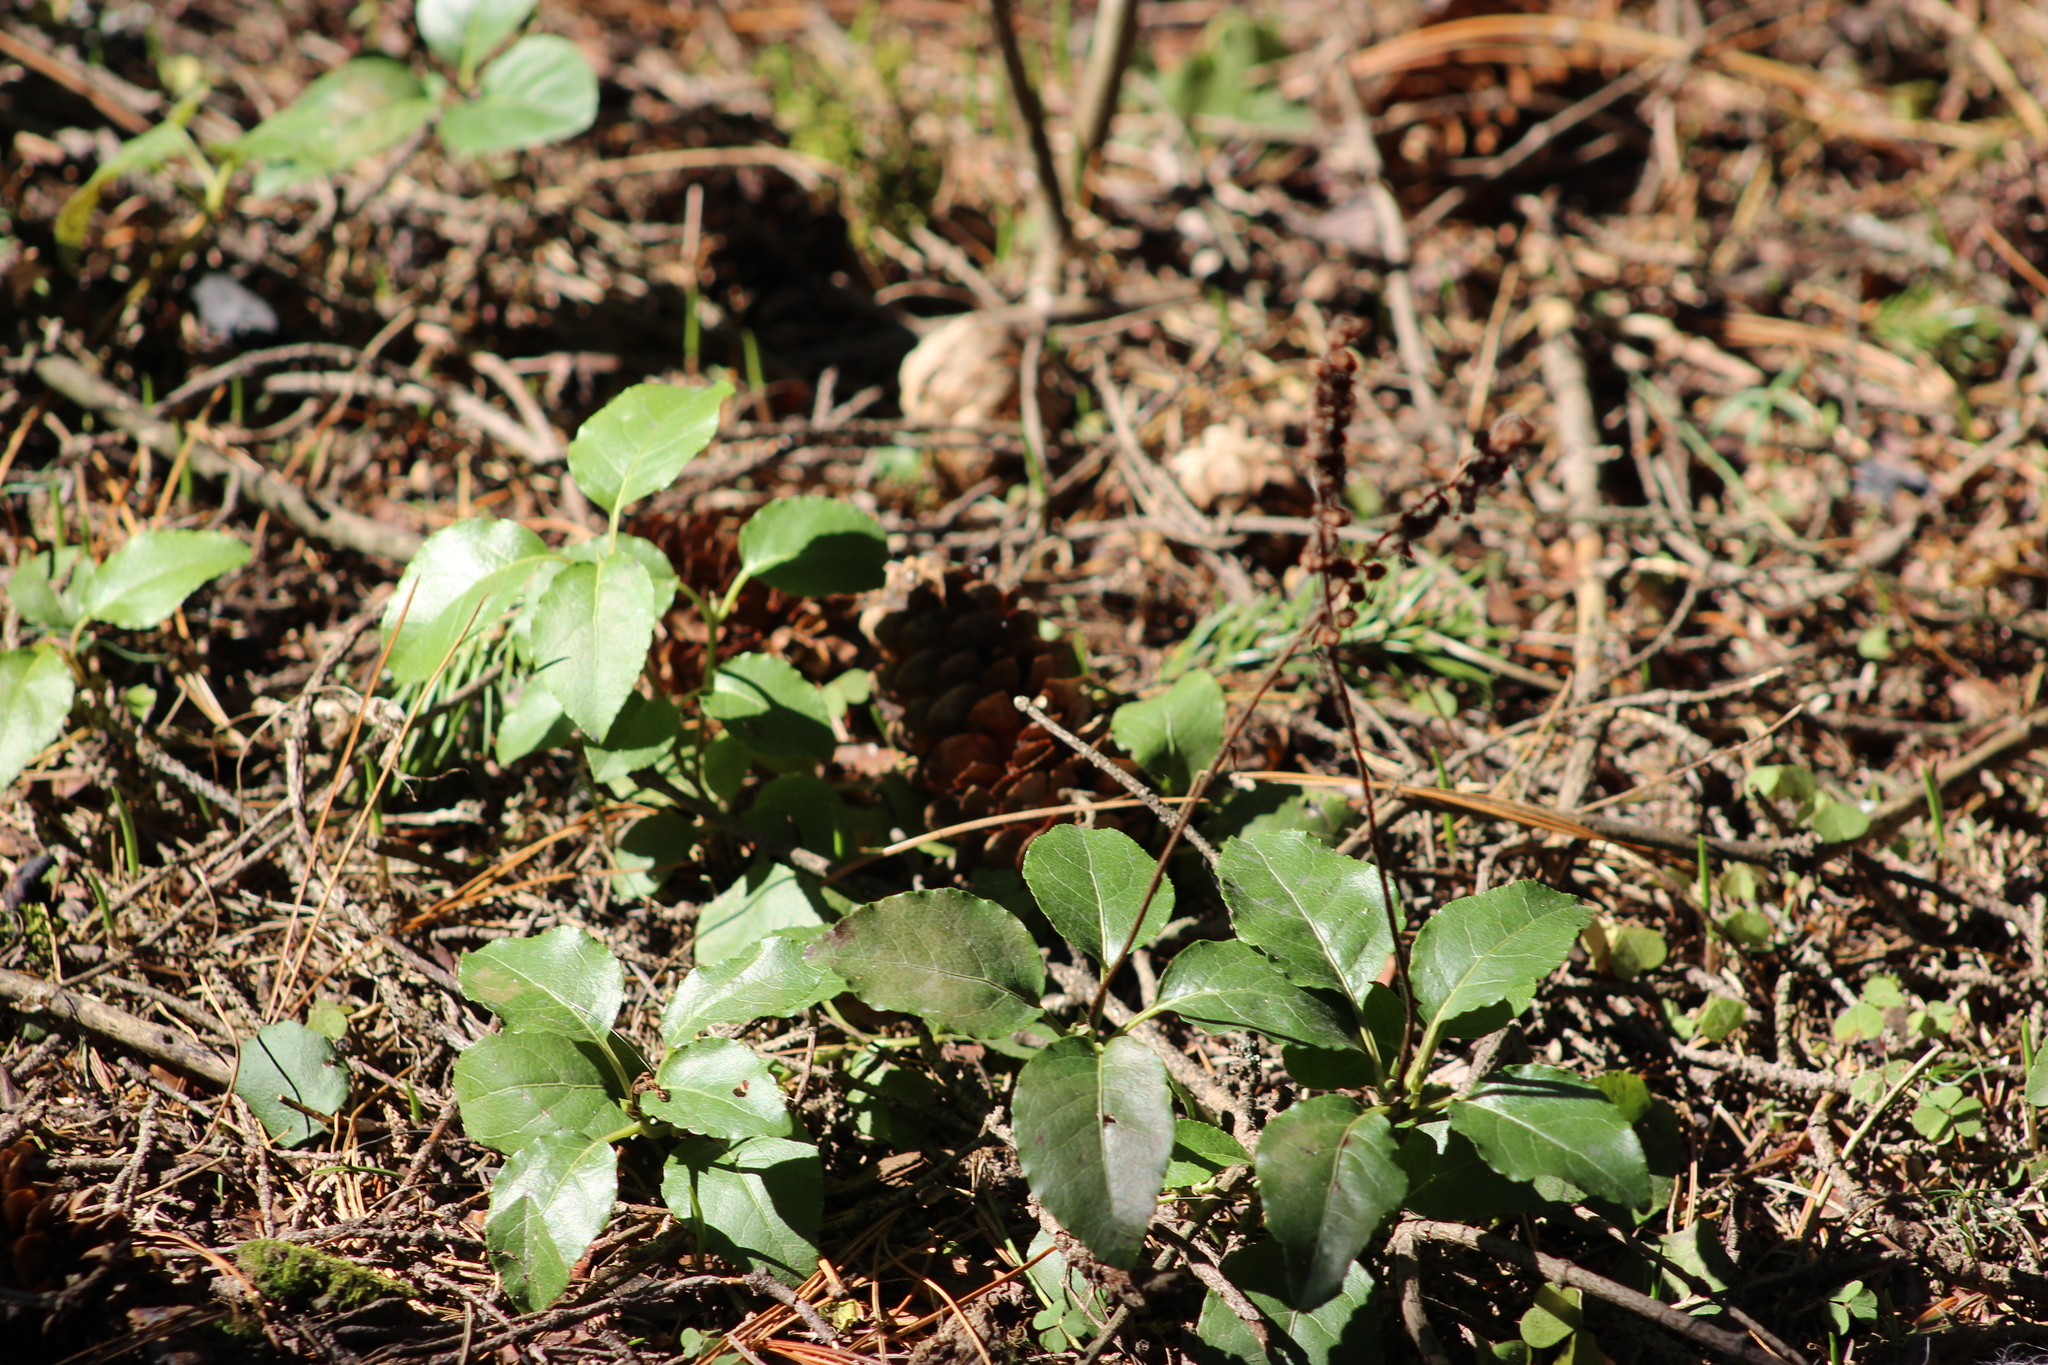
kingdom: Plantae
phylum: Tracheophyta
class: Magnoliopsida
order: Ericales
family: Ericaceae
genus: Orthilia
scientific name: Orthilia secunda
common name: One-sided orthilia
